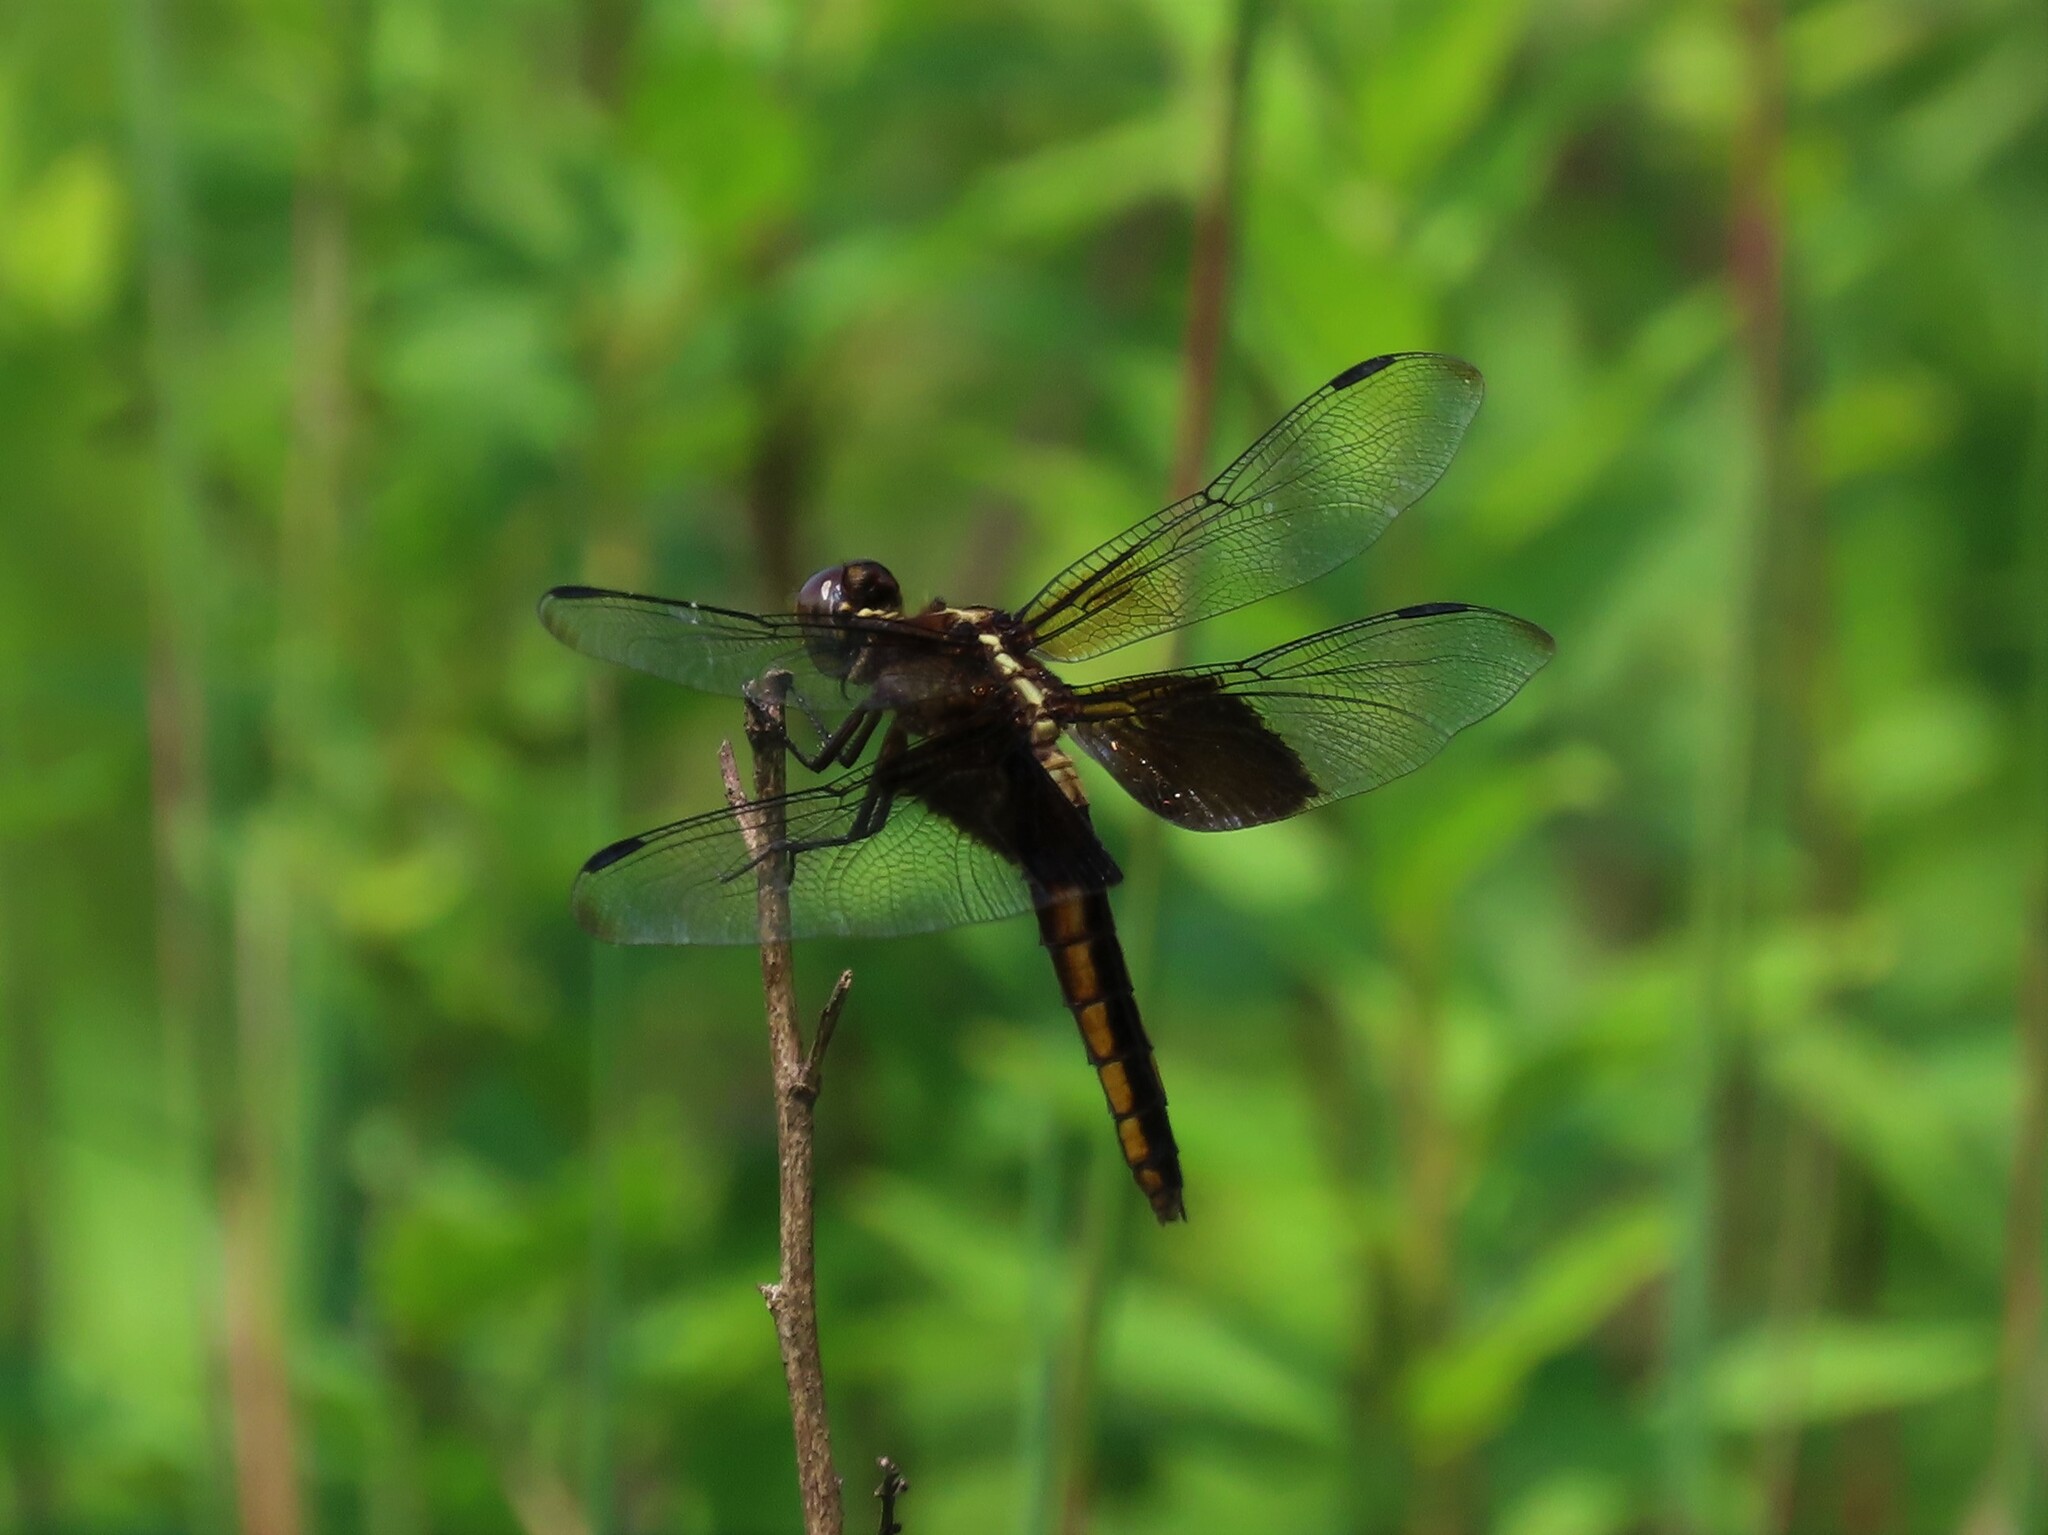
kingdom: Animalia
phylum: Arthropoda
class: Insecta
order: Odonata
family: Libellulidae
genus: Libellula
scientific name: Libellula luctuosa
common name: Widow skimmer
